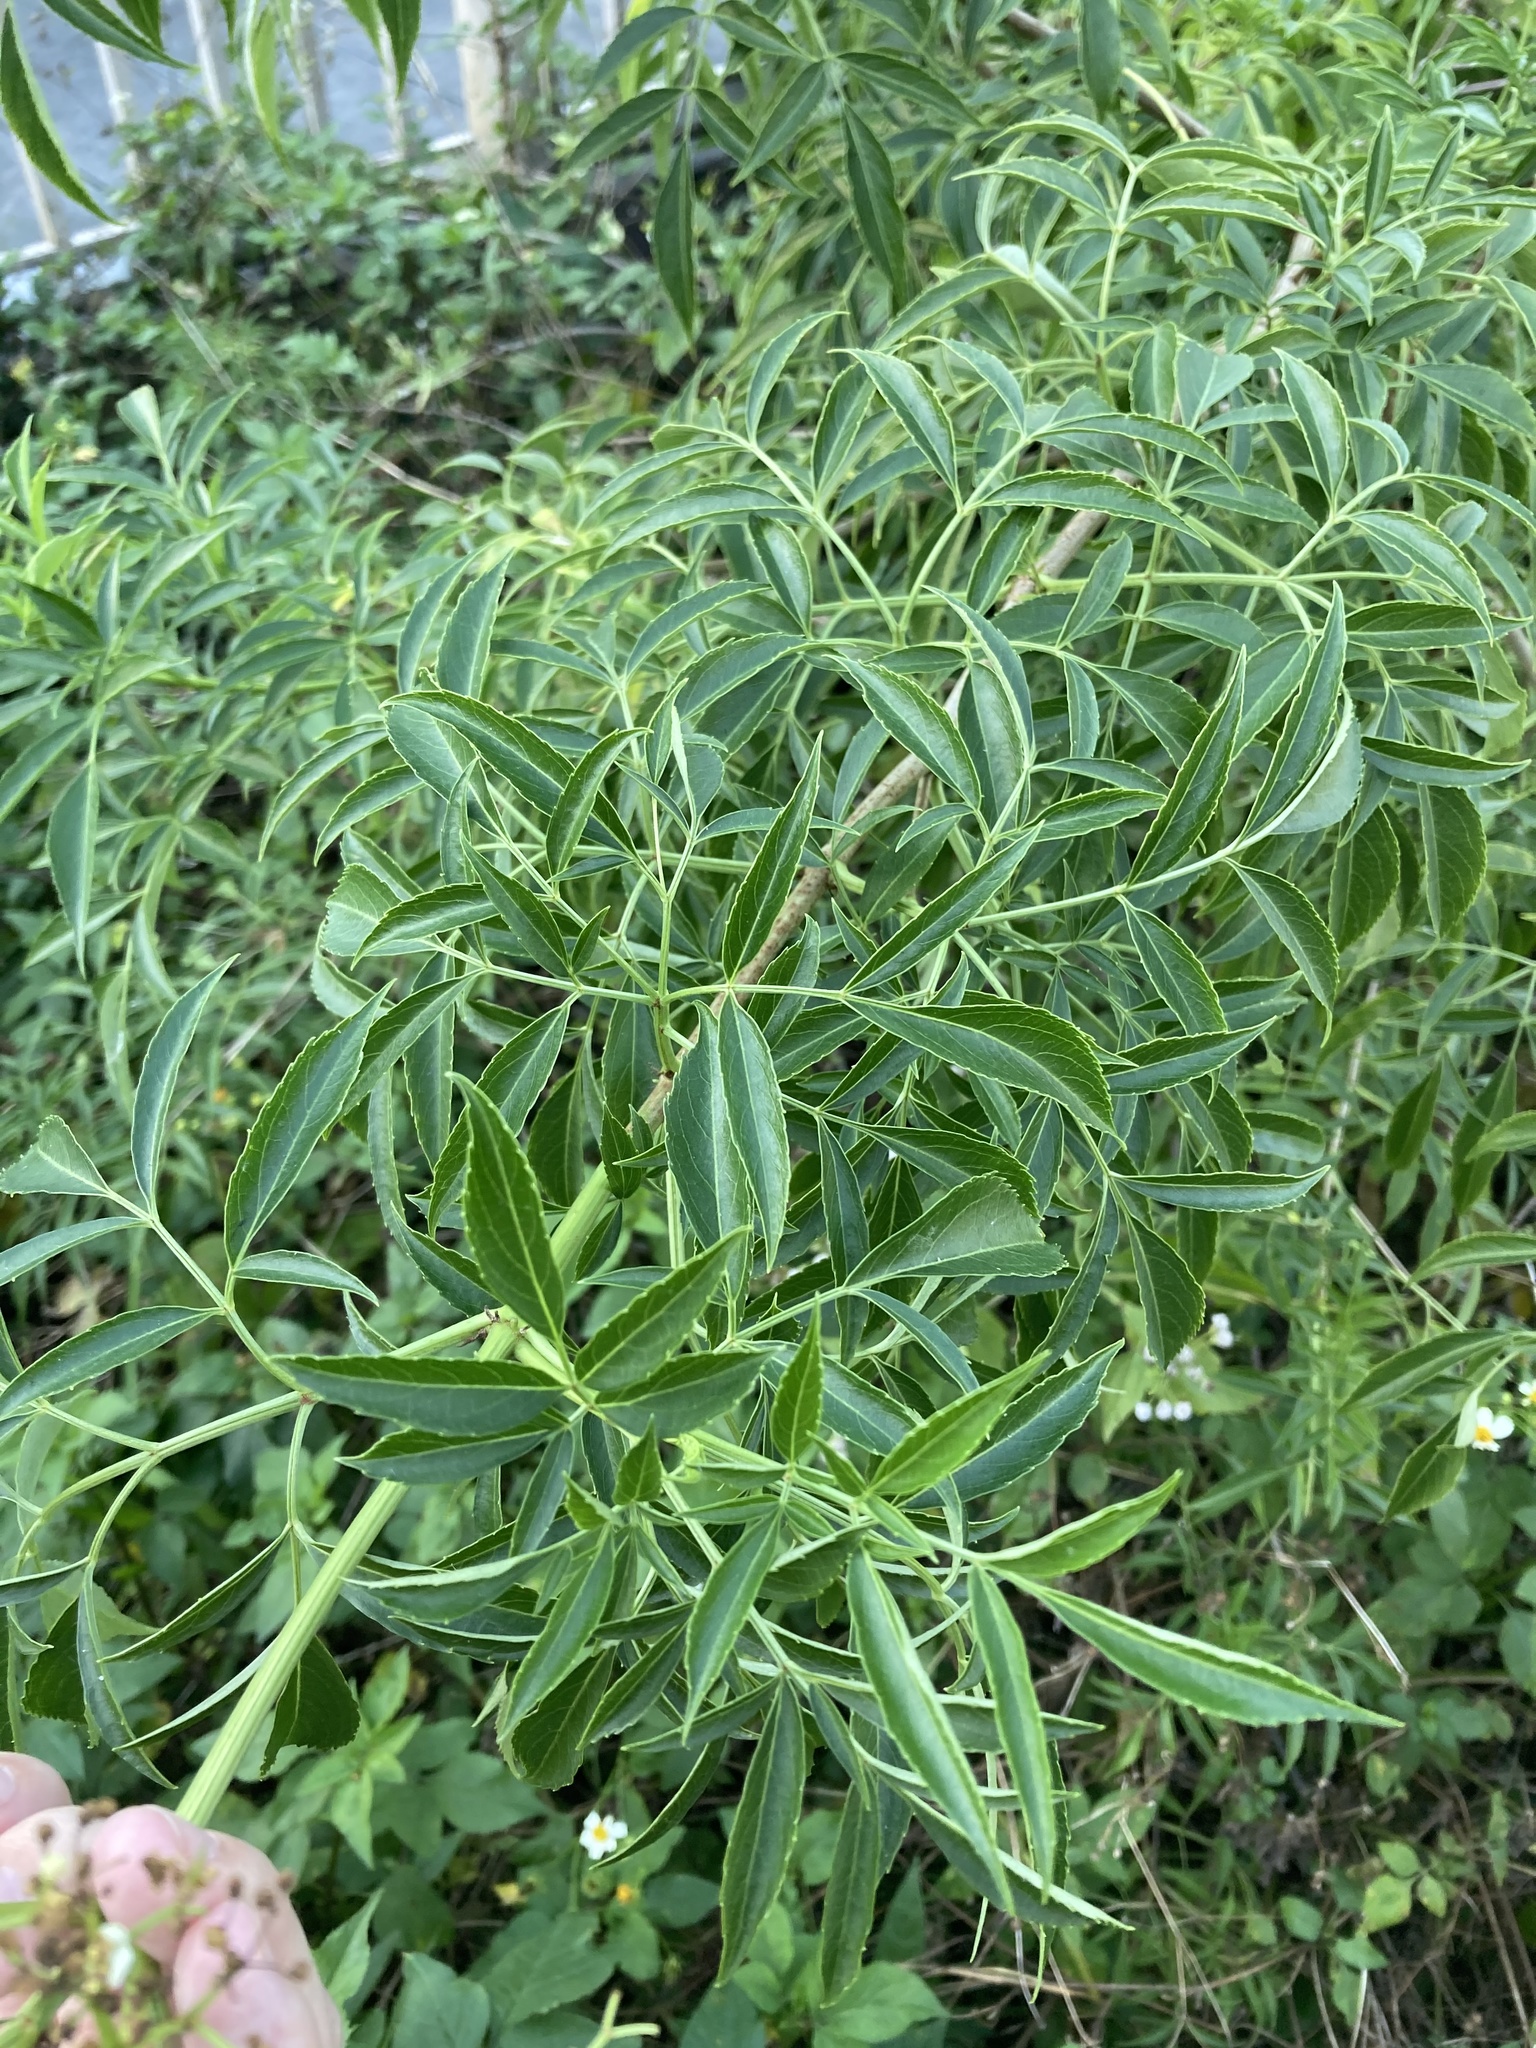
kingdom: Plantae
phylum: Tracheophyta
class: Magnoliopsida
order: Dipsacales
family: Viburnaceae
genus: Sambucus
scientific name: Sambucus canadensis
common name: American elder
